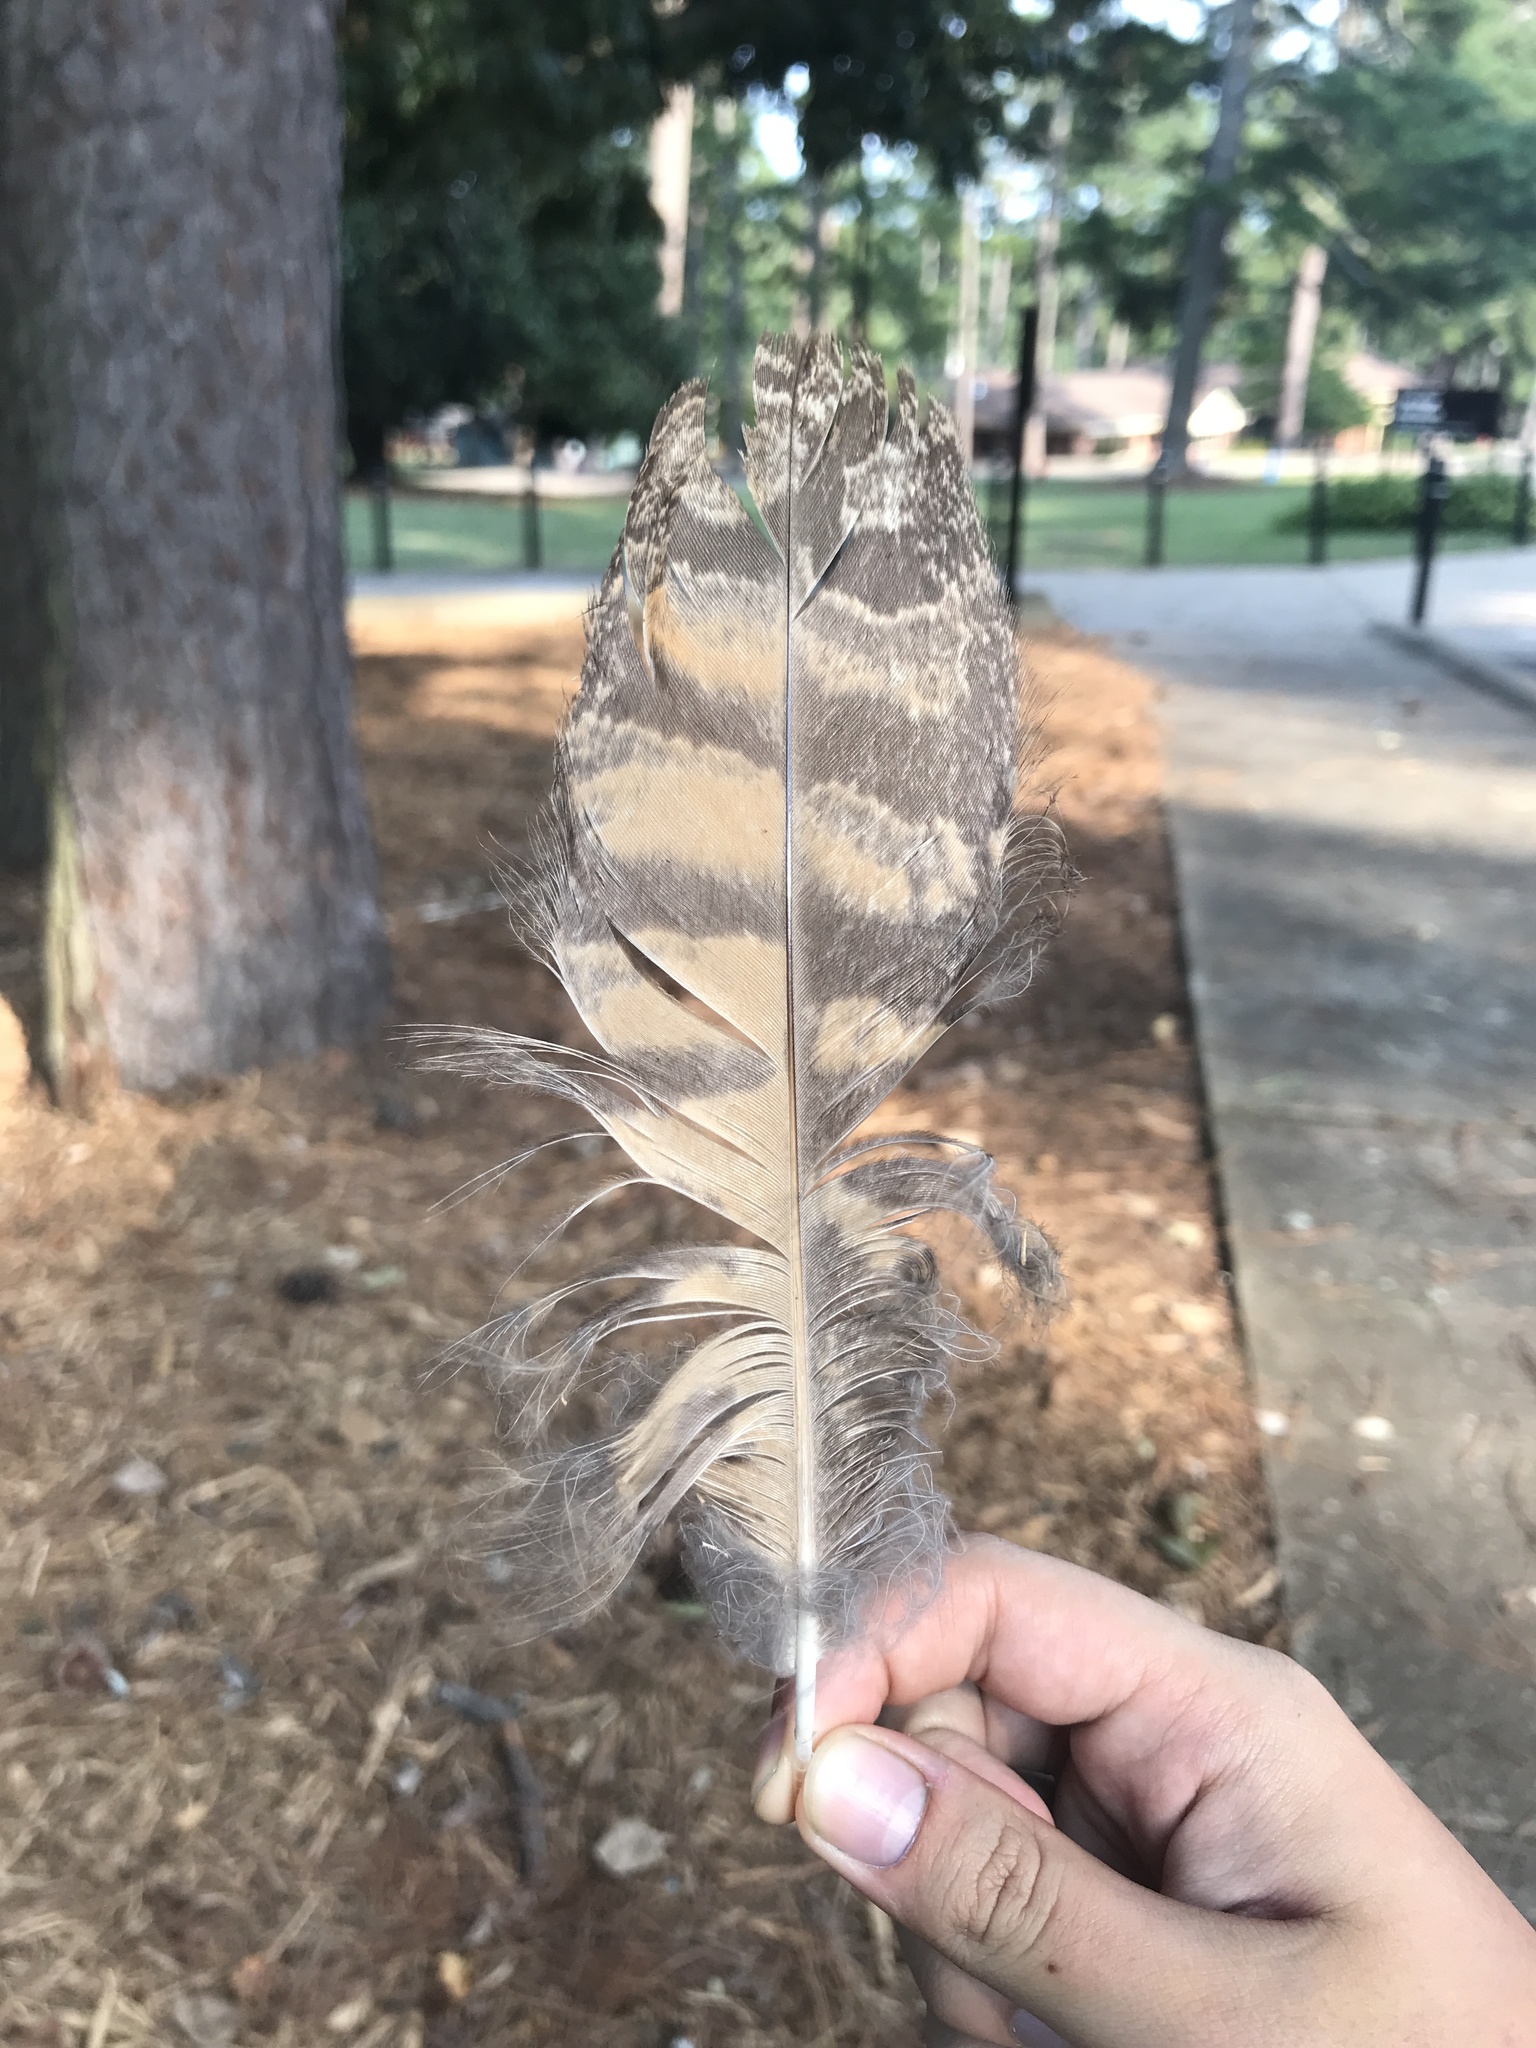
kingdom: Animalia
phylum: Chordata
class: Aves
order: Strigiformes
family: Strigidae
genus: Bubo
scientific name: Bubo virginianus
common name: Great horned owl
